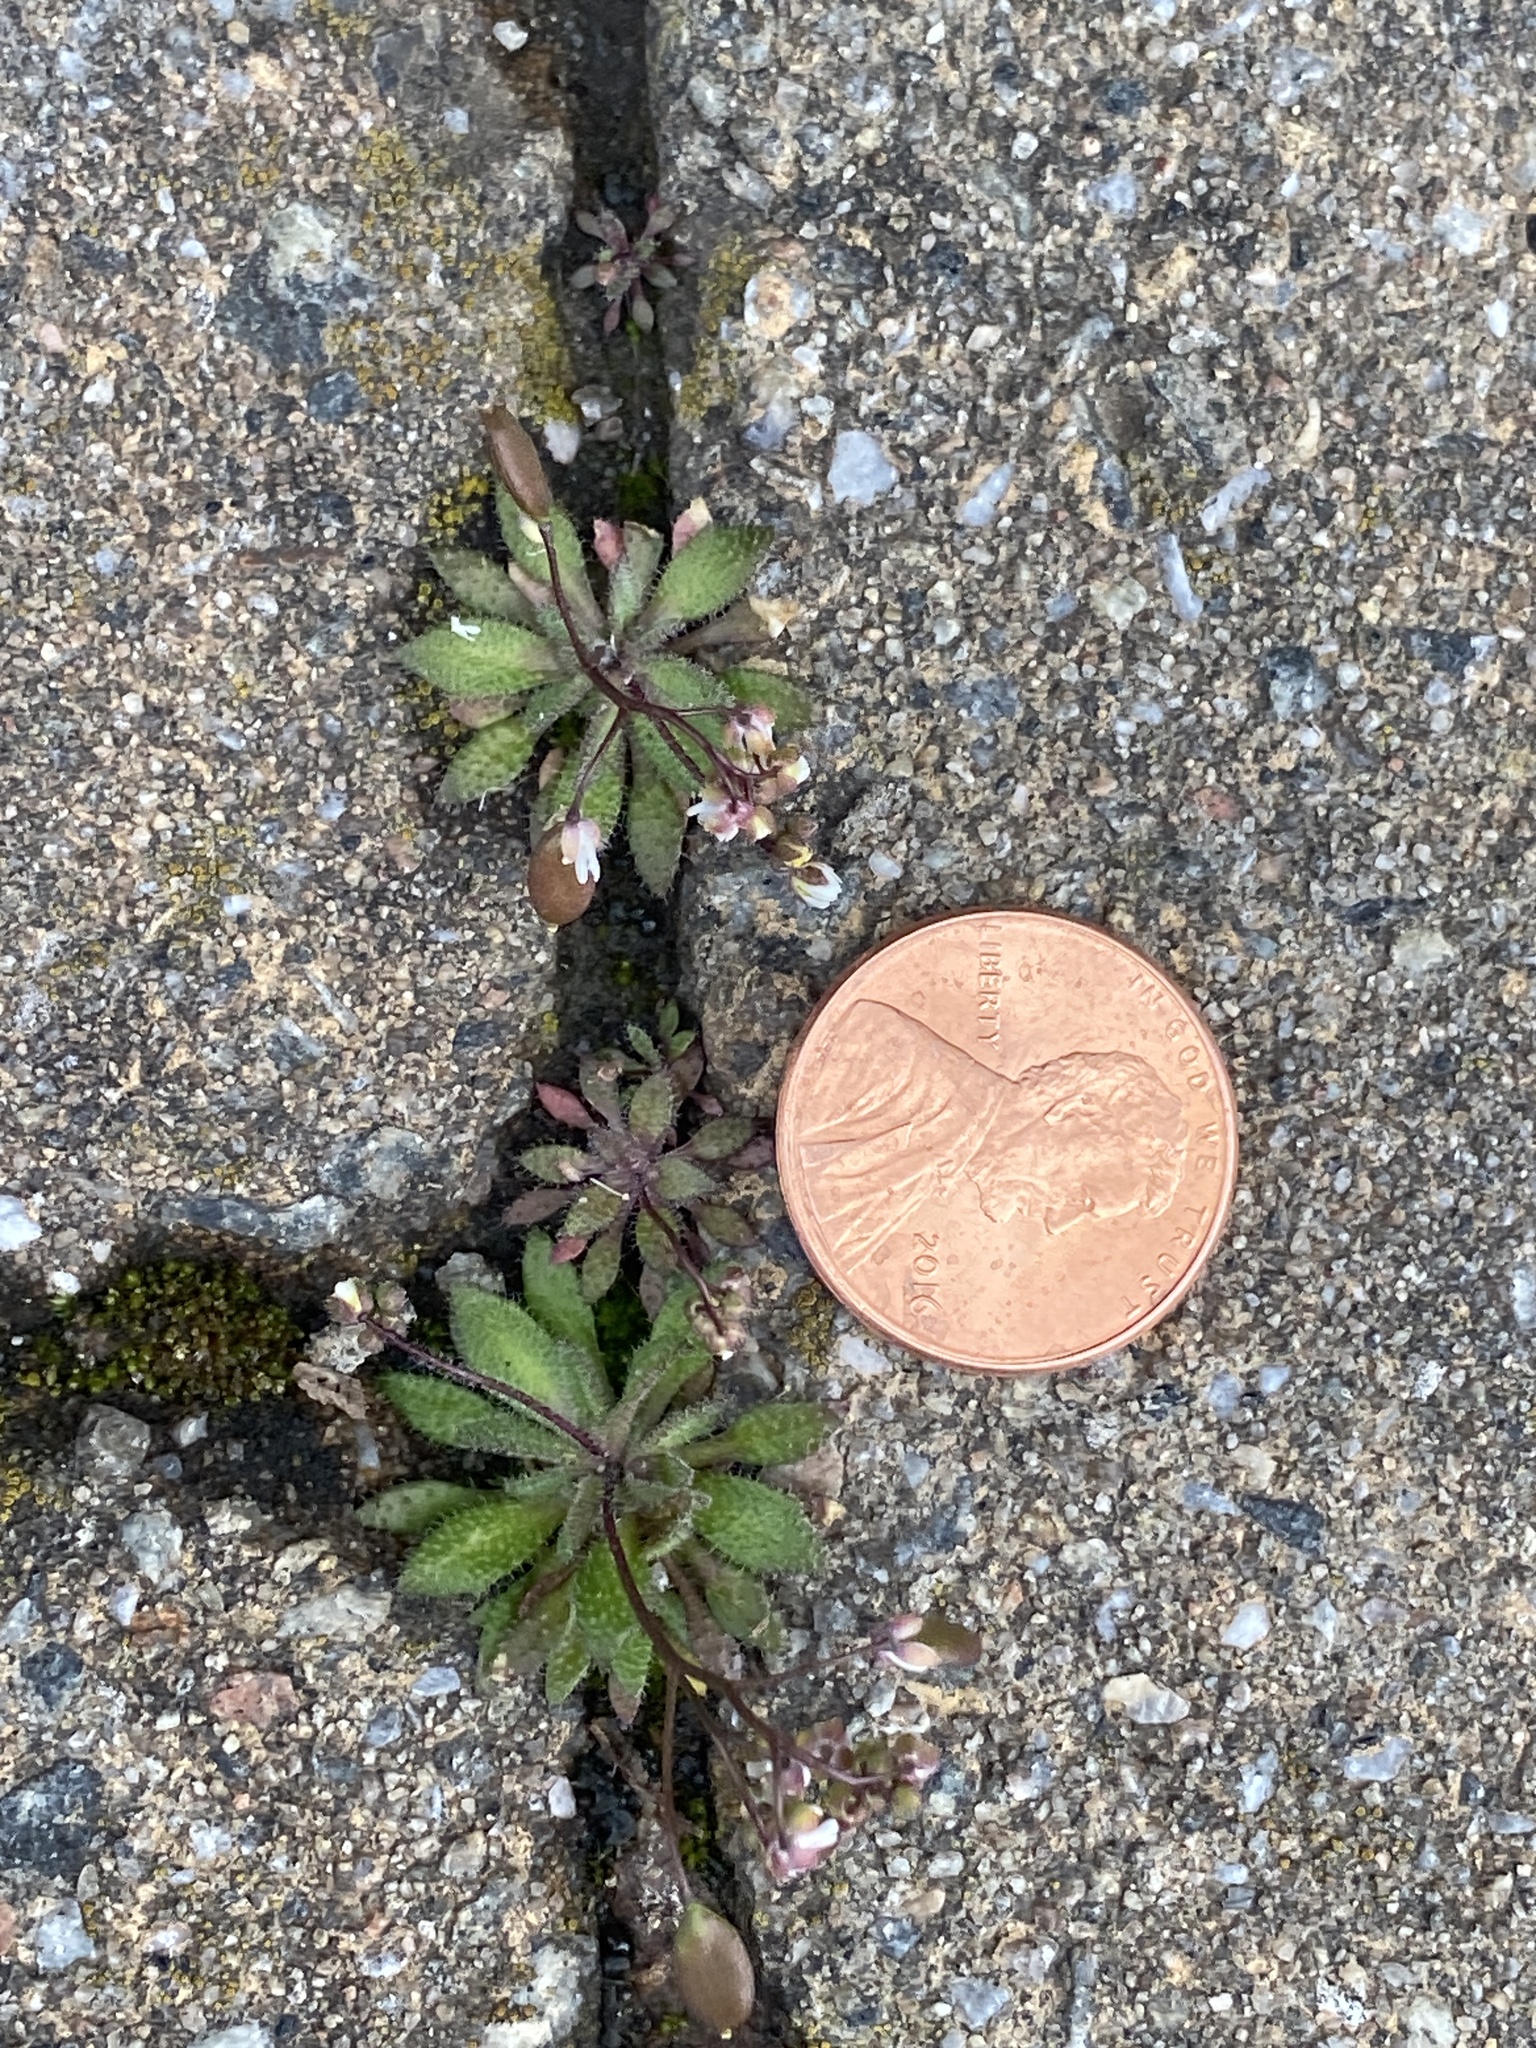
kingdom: Plantae
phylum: Tracheophyta
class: Magnoliopsida
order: Brassicales
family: Brassicaceae
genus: Draba
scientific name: Draba verna
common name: Spring draba
